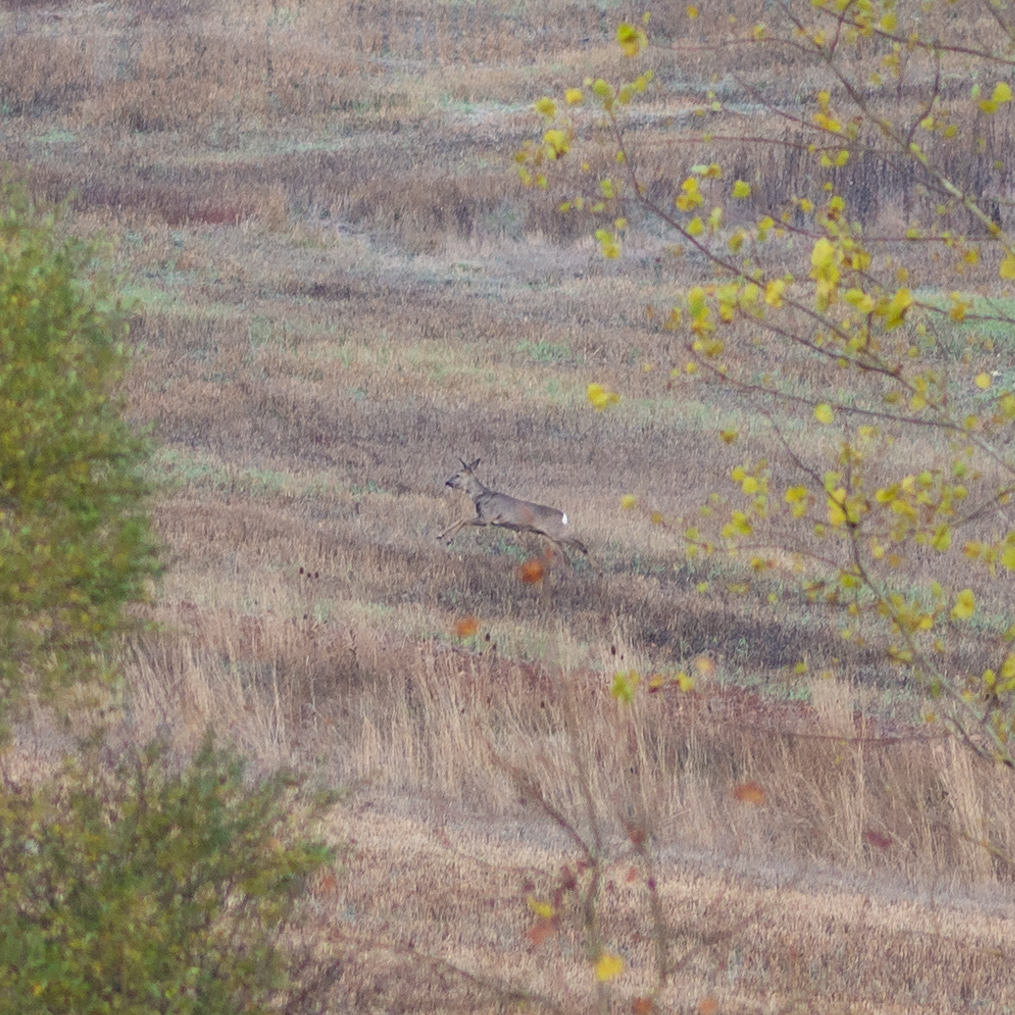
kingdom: Animalia
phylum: Chordata
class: Mammalia
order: Artiodactyla
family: Cervidae
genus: Capreolus
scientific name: Capreolus capreolus
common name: Western roe deer
